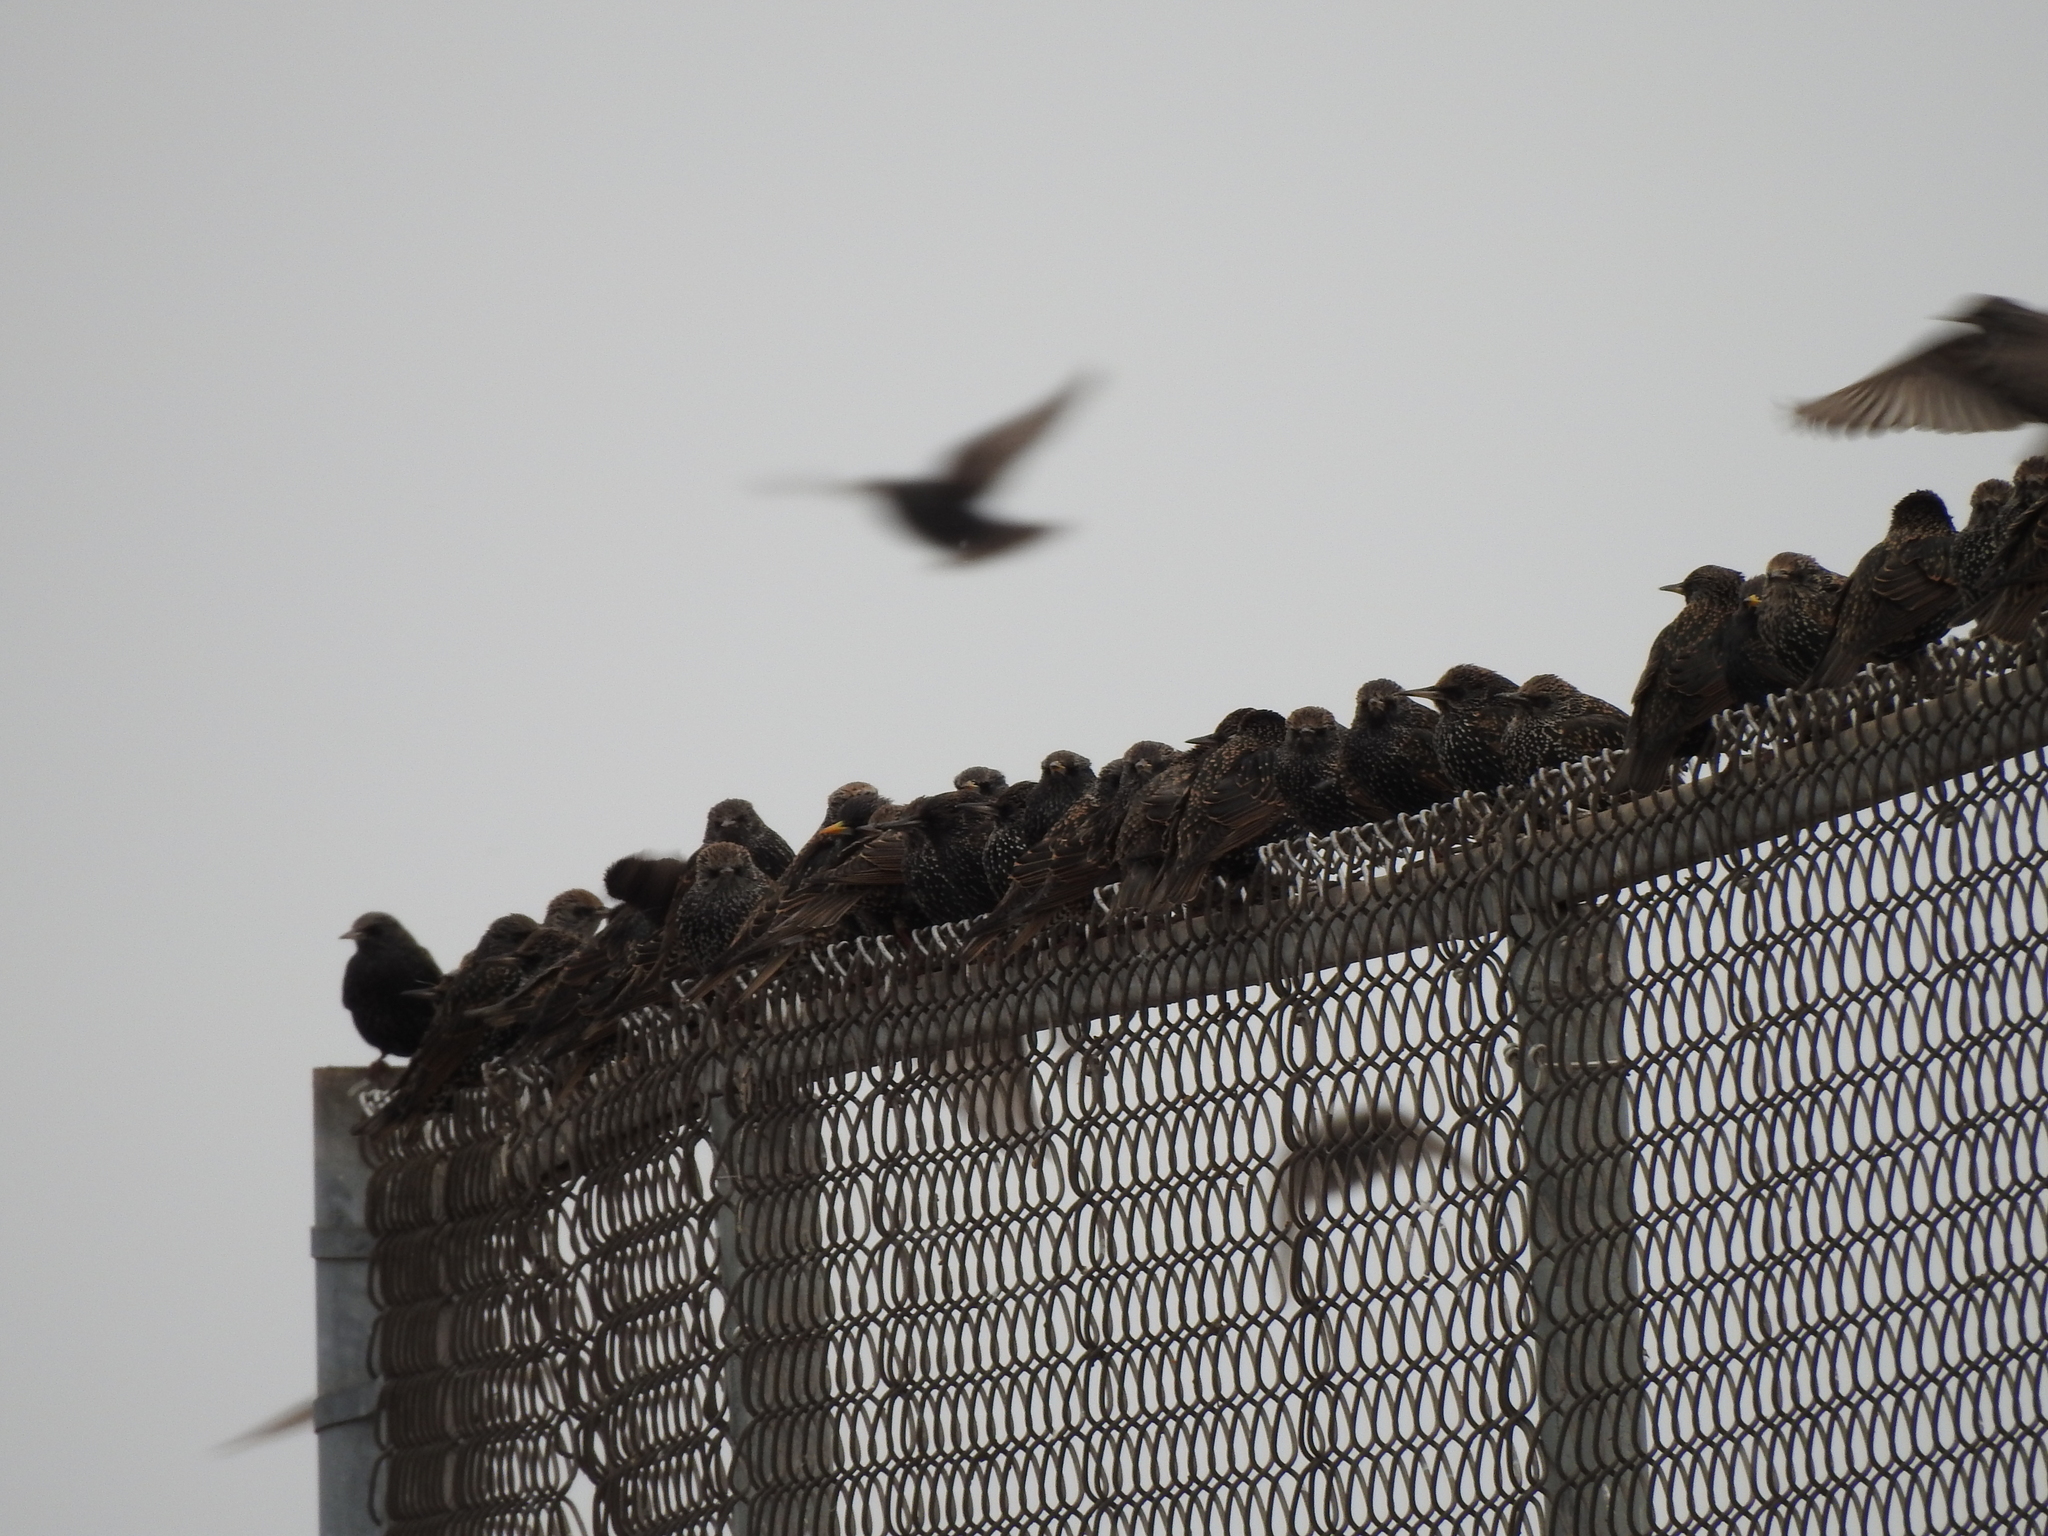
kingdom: Animalia
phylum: Chordata
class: Aves
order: Passeriformes
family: Sturnidae
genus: Sturnus
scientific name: Sturnus vulgaris
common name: Common starling
